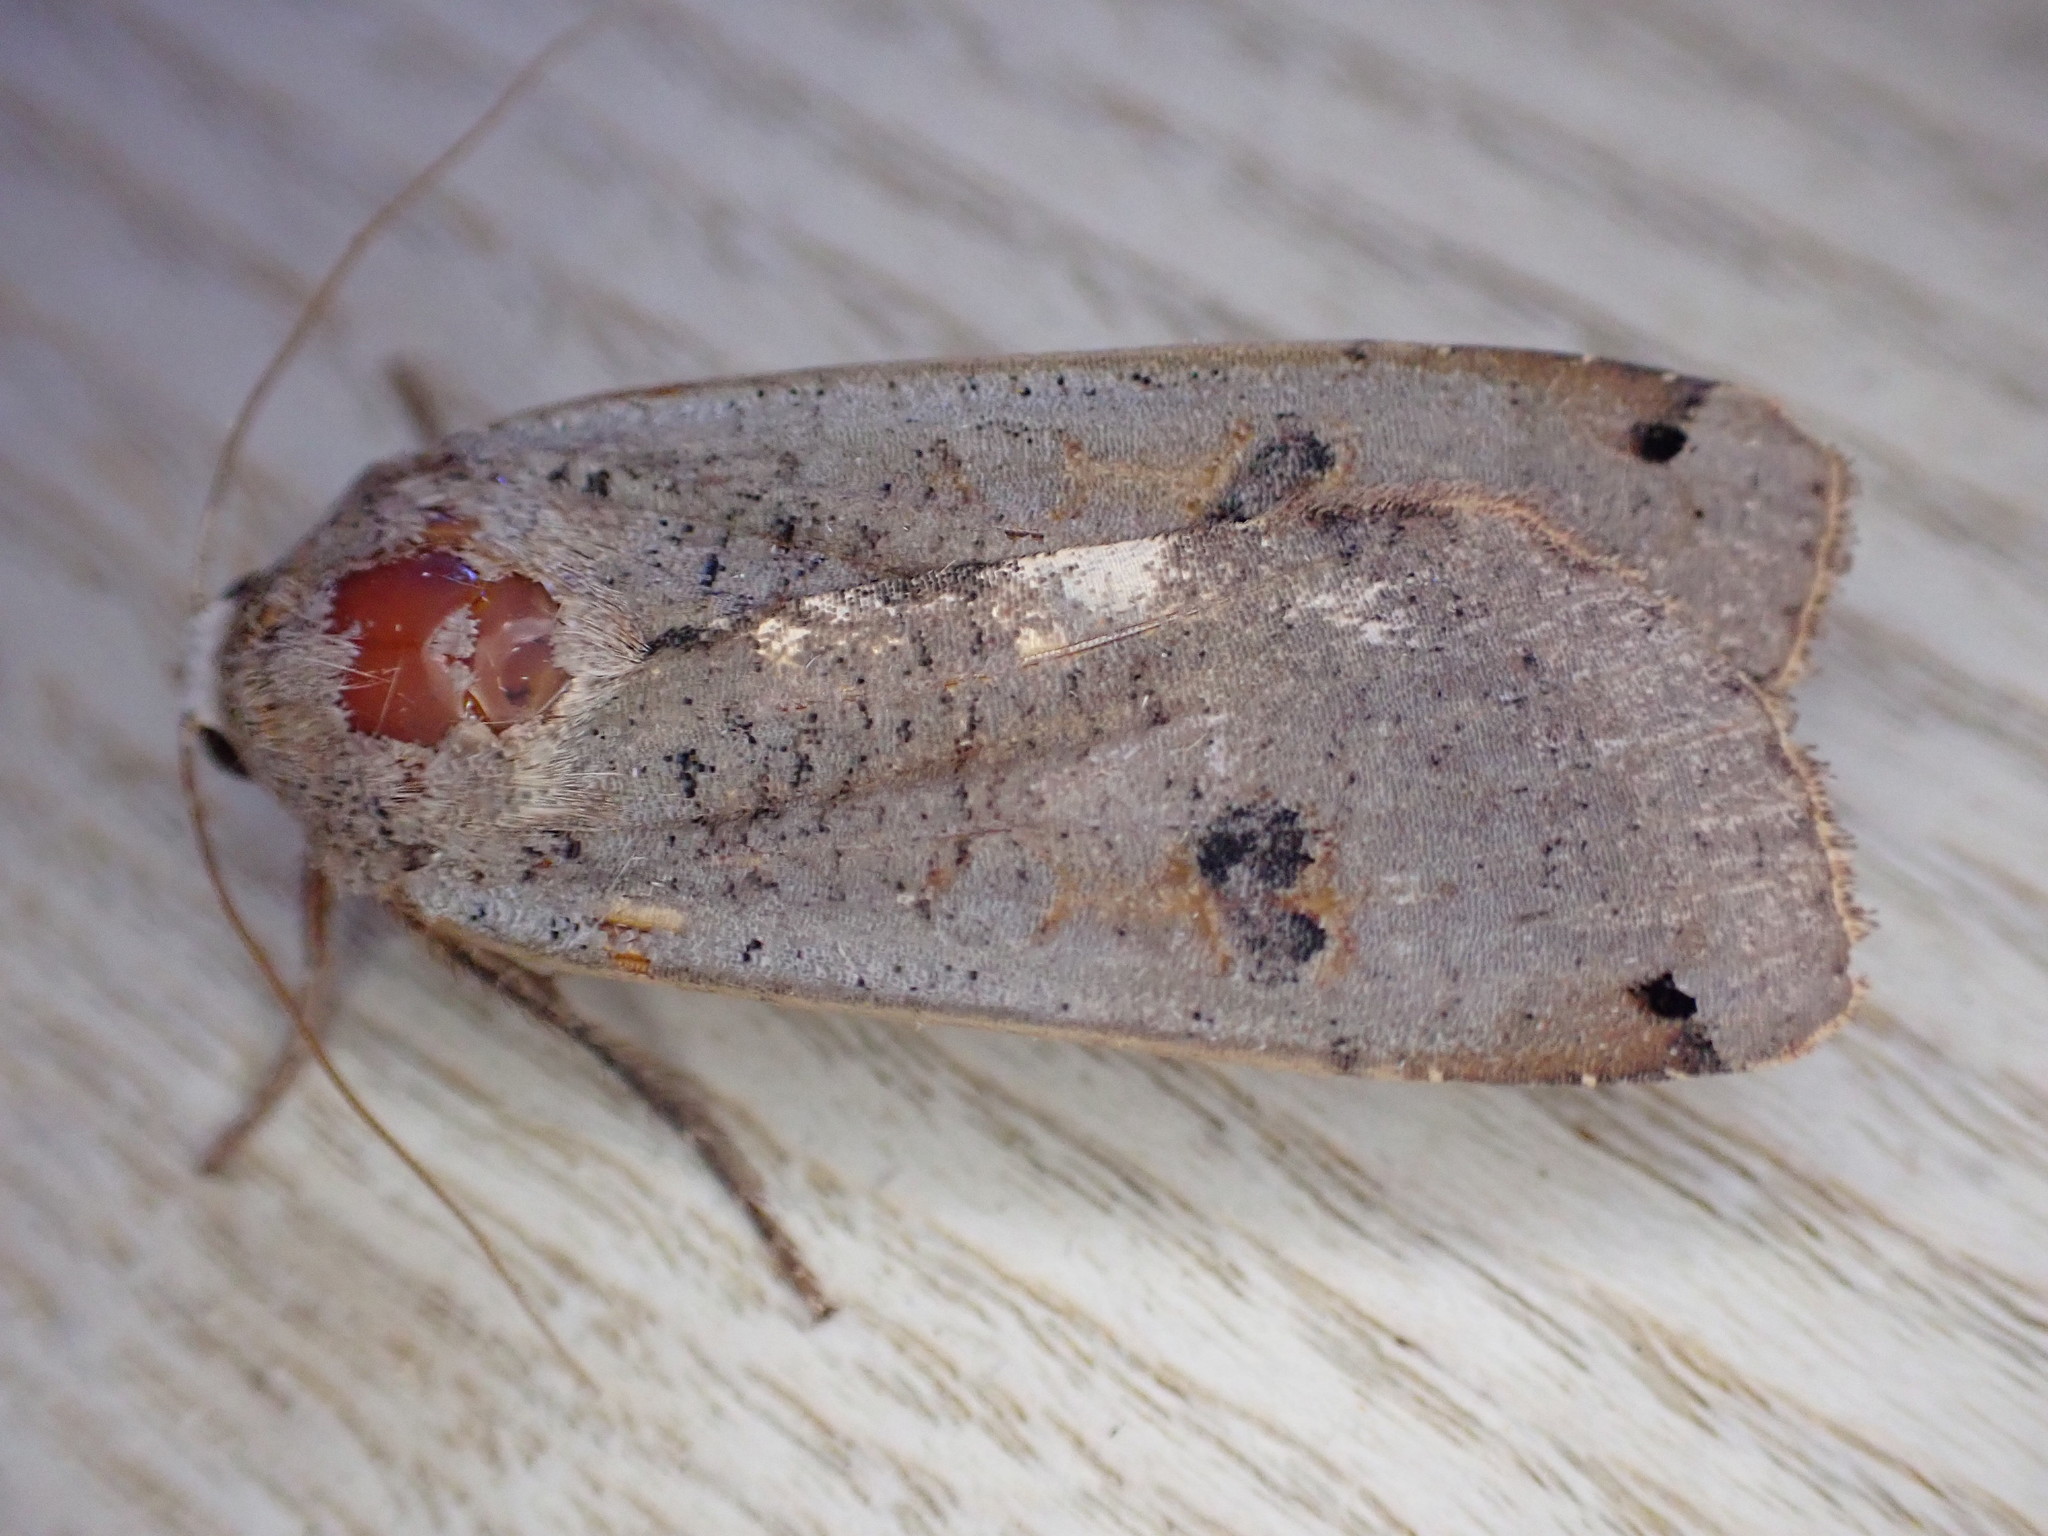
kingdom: Animalia
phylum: Arthropoda
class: Insecta
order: Lepidoptera
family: Noctuidae
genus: Noctua
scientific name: Noctua pronuba
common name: Large yellow underwing
